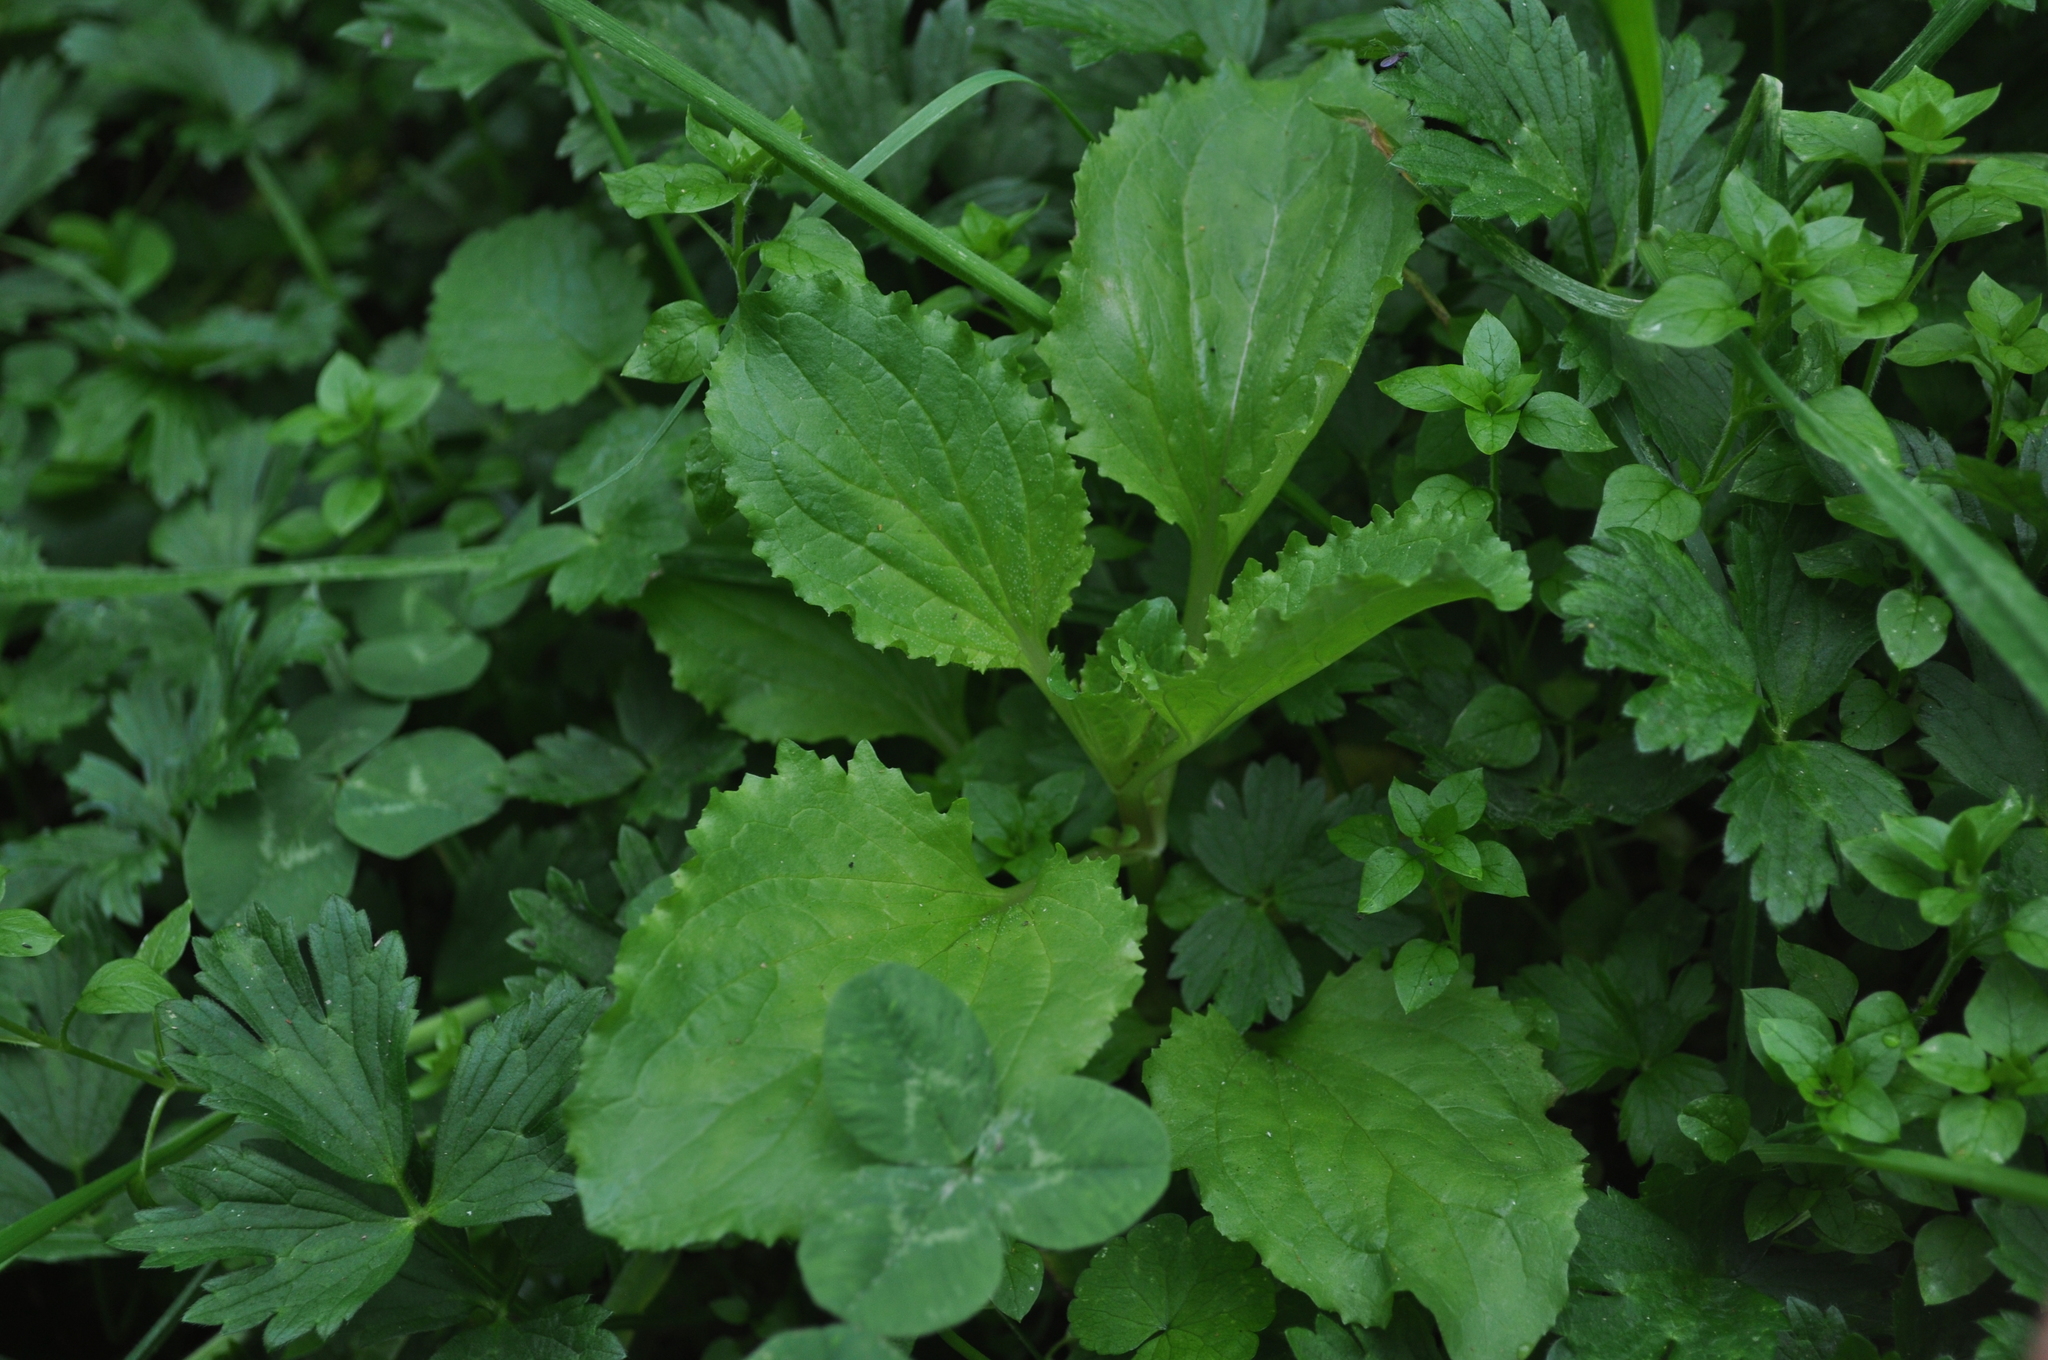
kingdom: Plantae
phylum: Tracheophyta
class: Magnoliopsida
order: Lamiales
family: Phrymaceae
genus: Erythranthe
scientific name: Erythranthe guttata
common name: Monkeyflower
